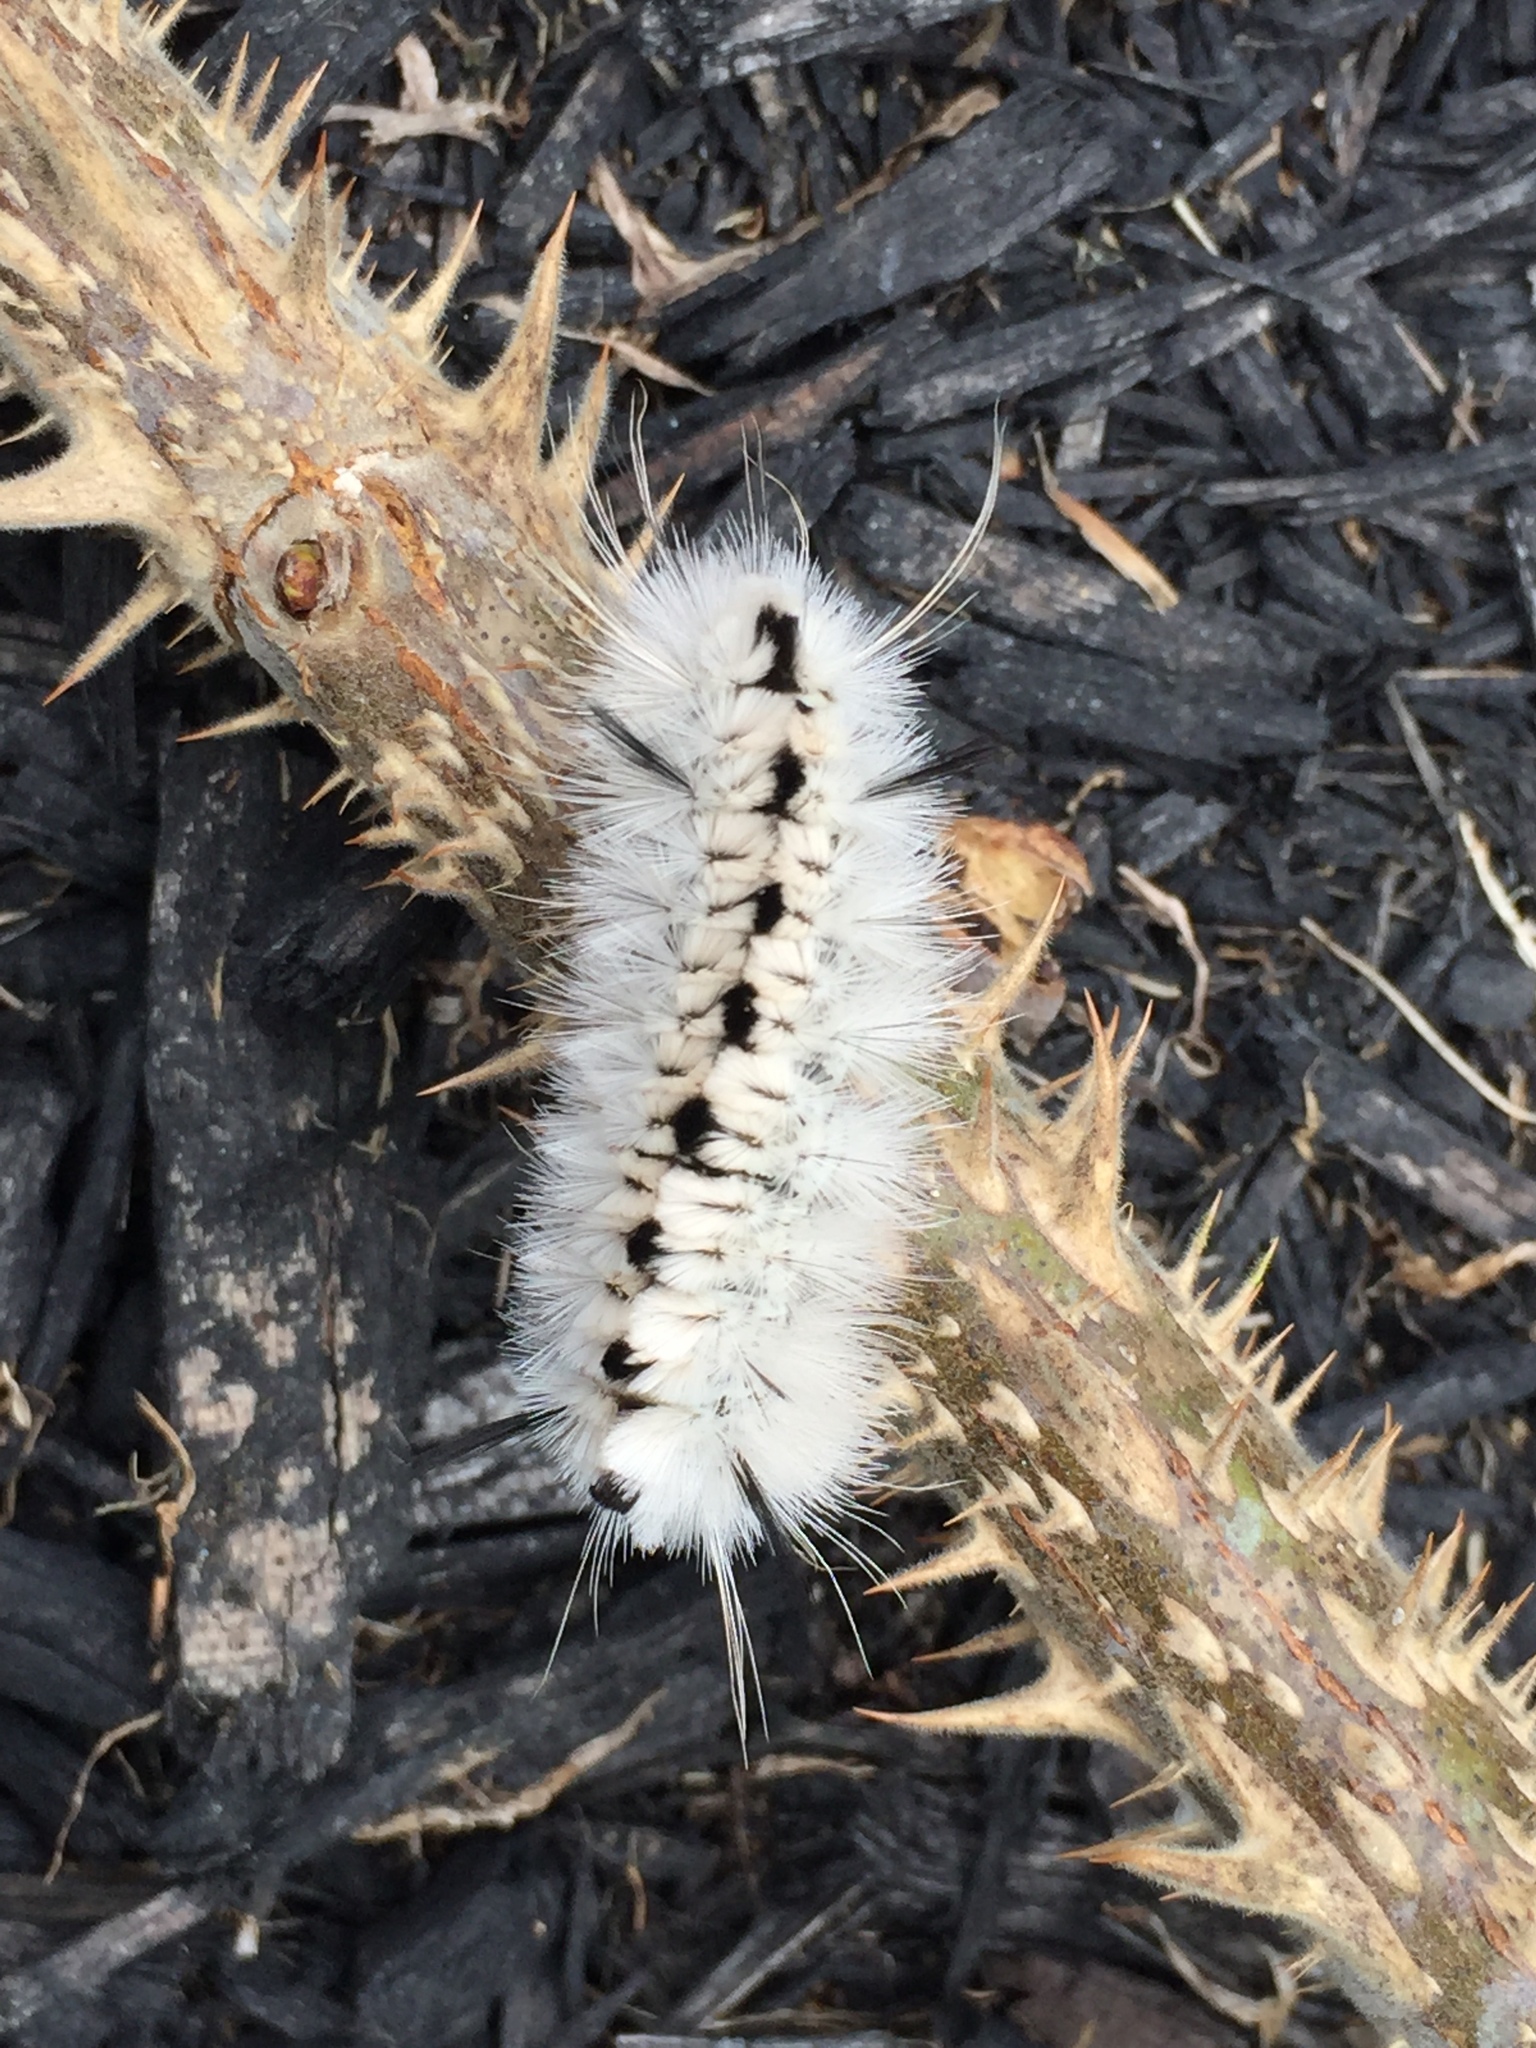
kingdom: Animalia
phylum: Arthropoda
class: Insecta
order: Lepidoptera
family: Erebidae
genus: Lophocampa
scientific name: Lophocampa caryae
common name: Hickory tussock moth
